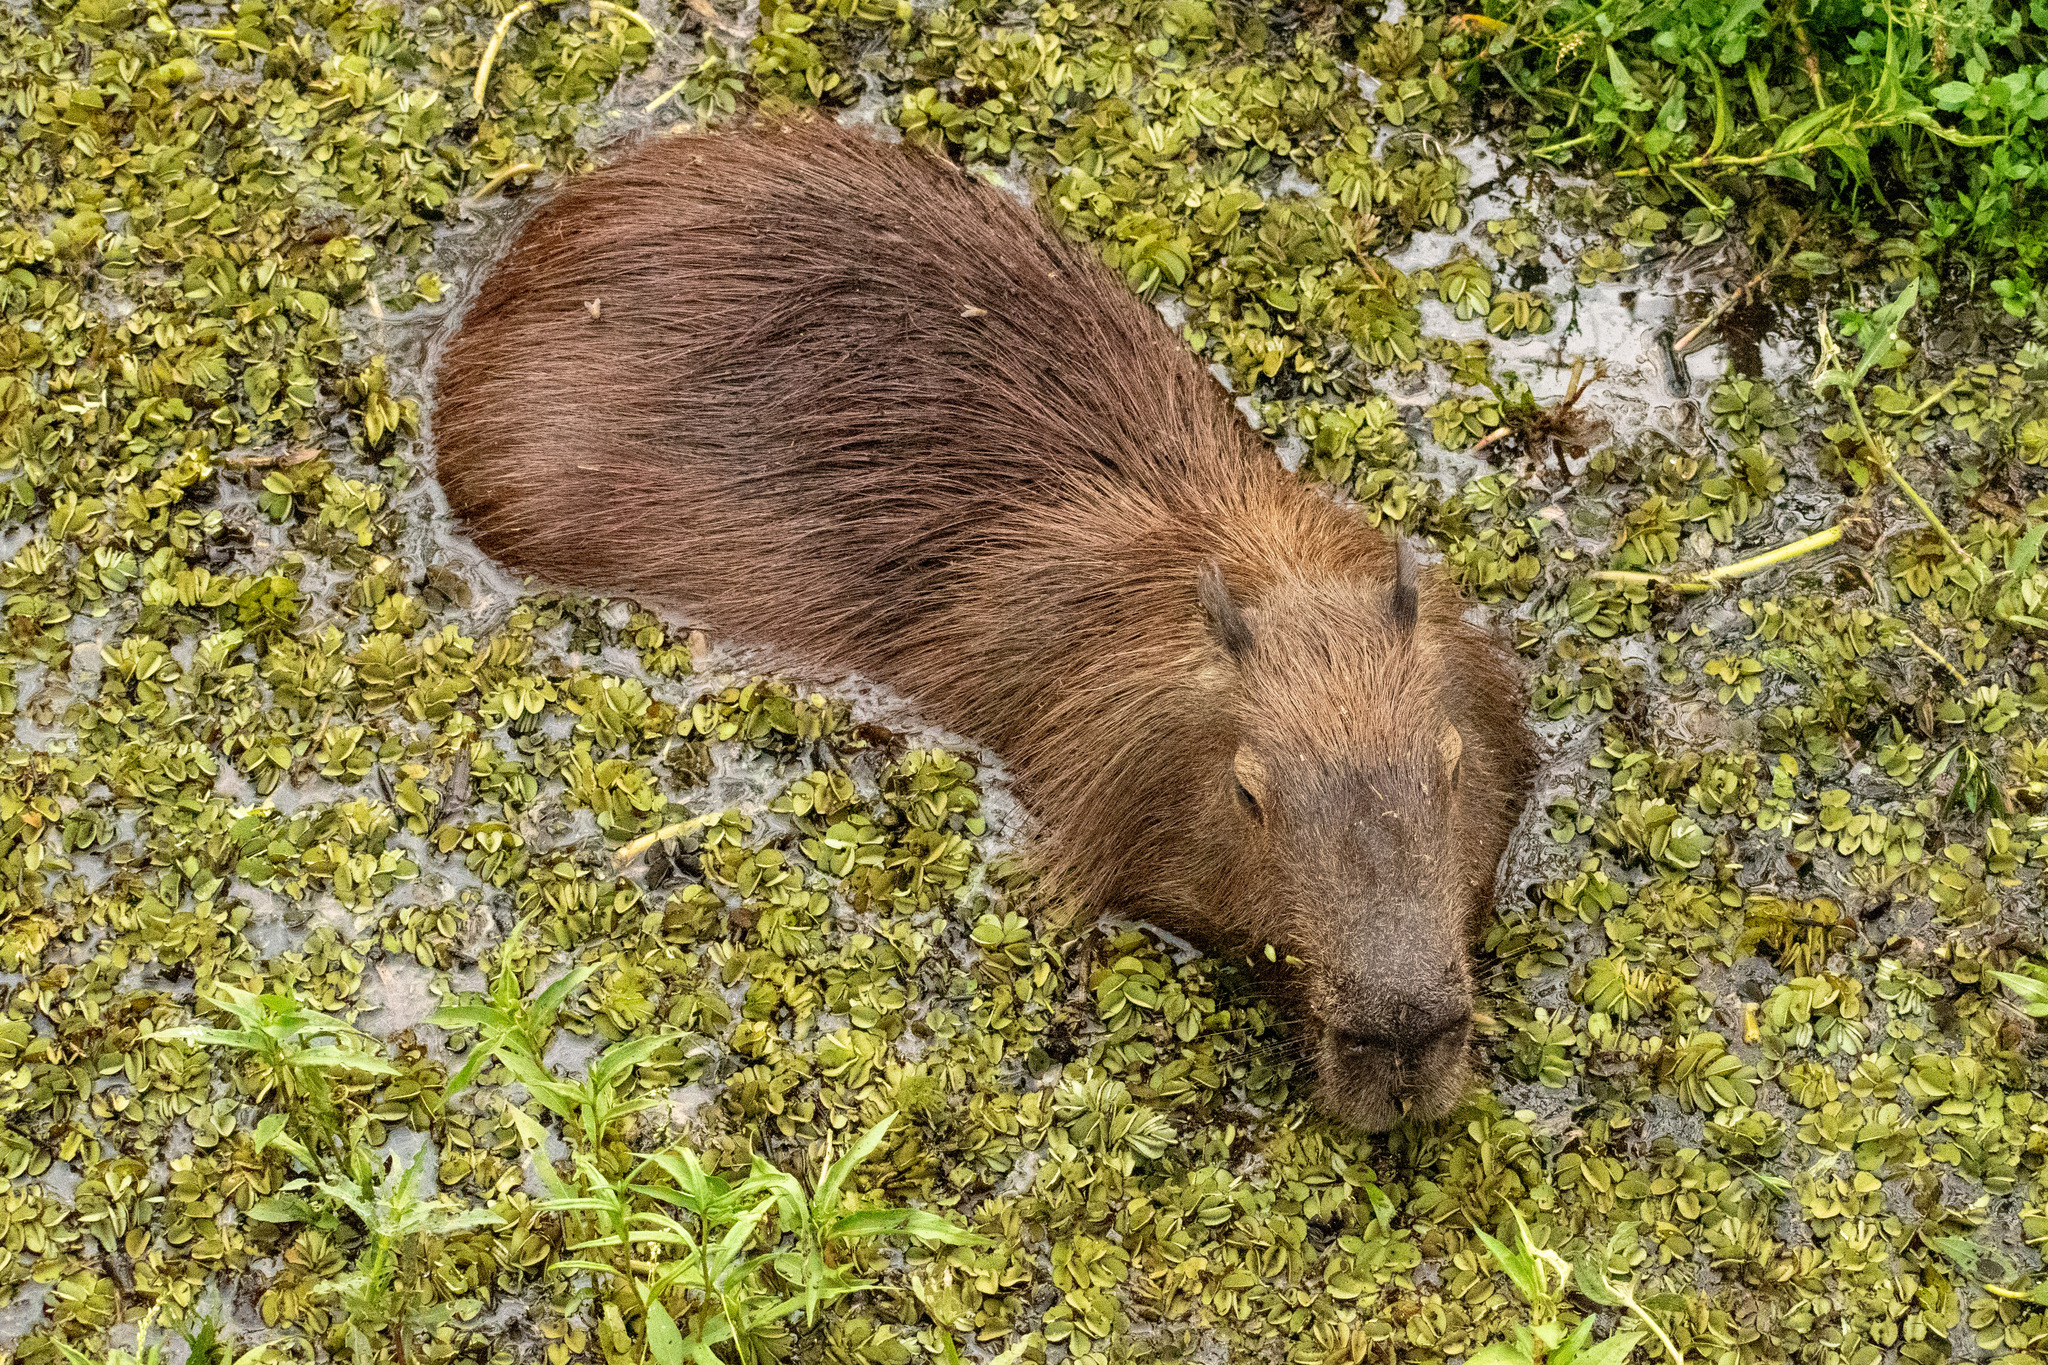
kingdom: Animalia
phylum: Chordata
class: Mammalia
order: Rodentia
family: Caviidae
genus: Hydrochoerus
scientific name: Hydrochoerus hydrochaeris
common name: Capybara
